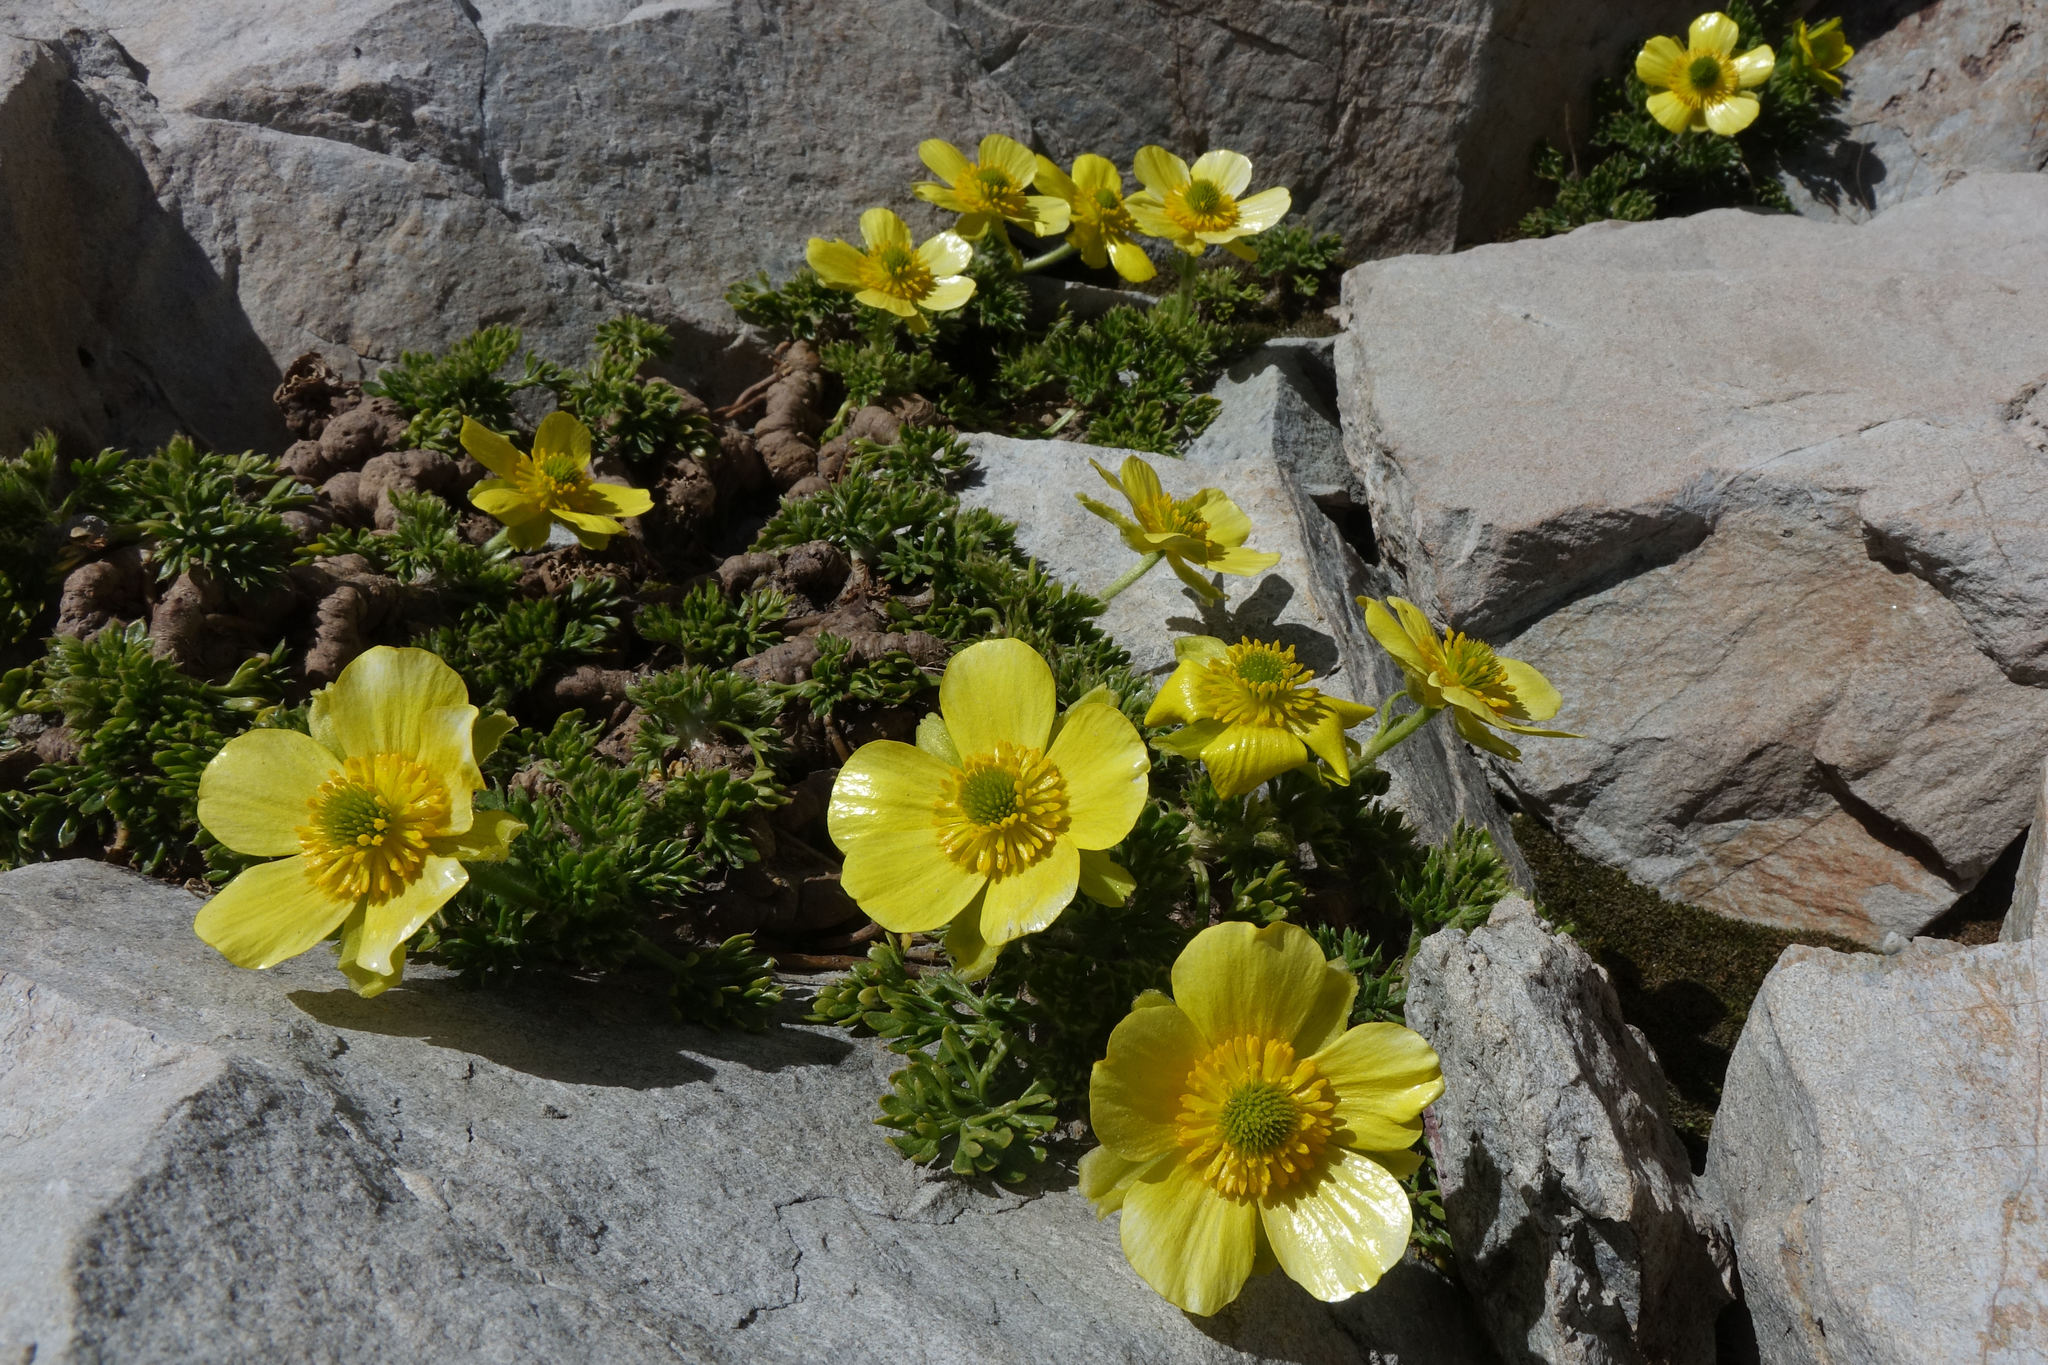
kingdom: Plantae
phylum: Tracheophyta
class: Magnoliopsida
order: Ranunculales
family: Ranunculaceae
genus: Ranunculus
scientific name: Ranunculus sericophyllus
